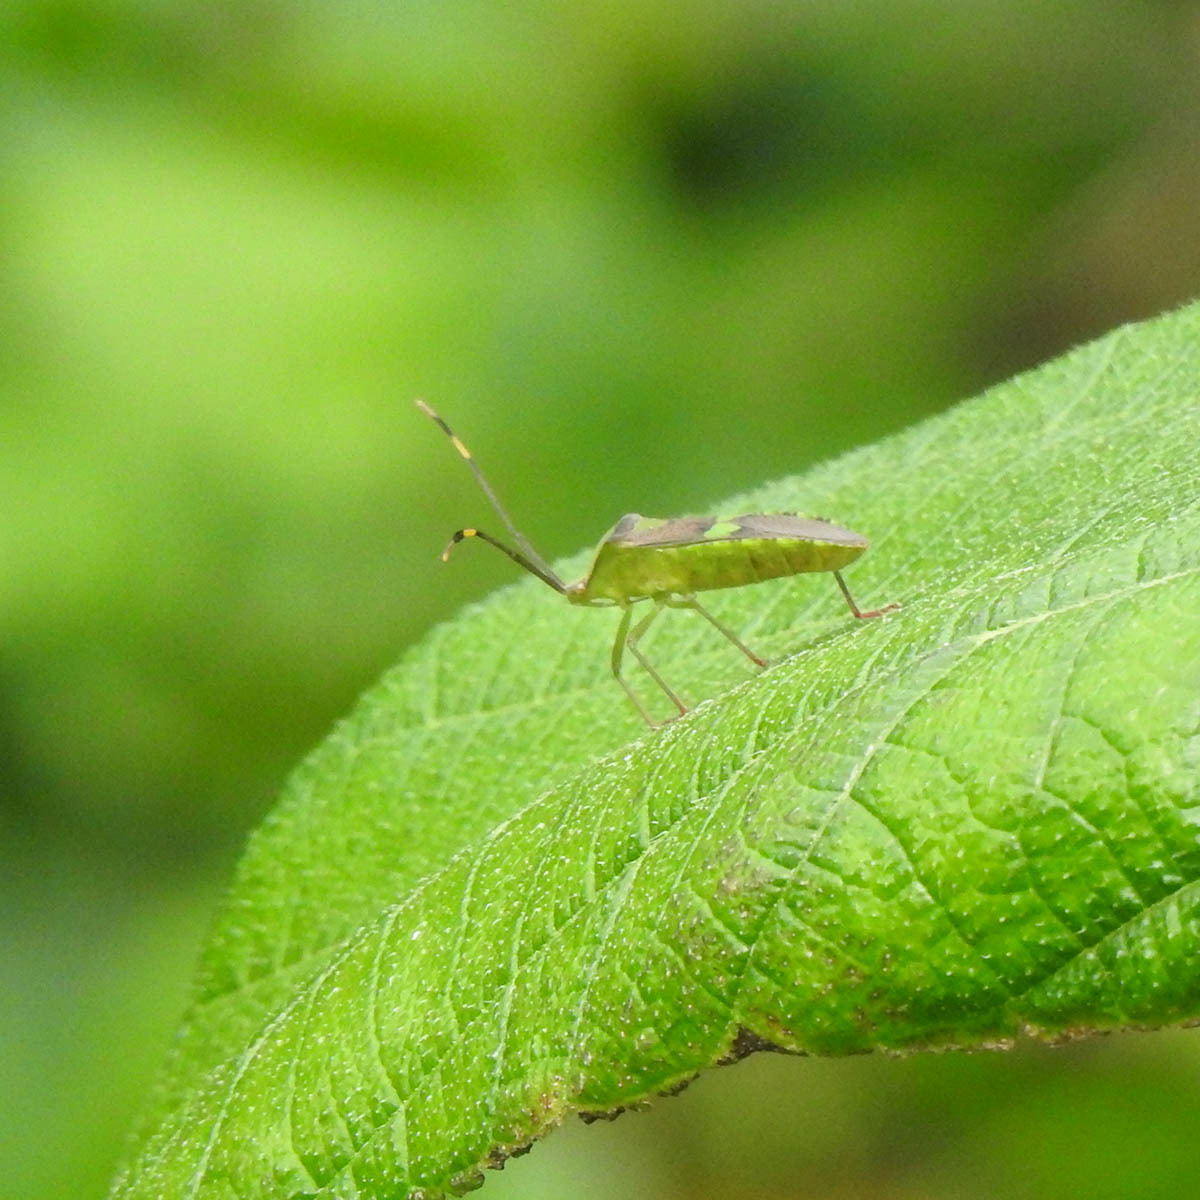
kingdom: Animalia
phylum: Arthropoda
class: Insecta
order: Hemiptera
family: Coreidae
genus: Prismatocerus
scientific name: Prismatocerus prominulus
